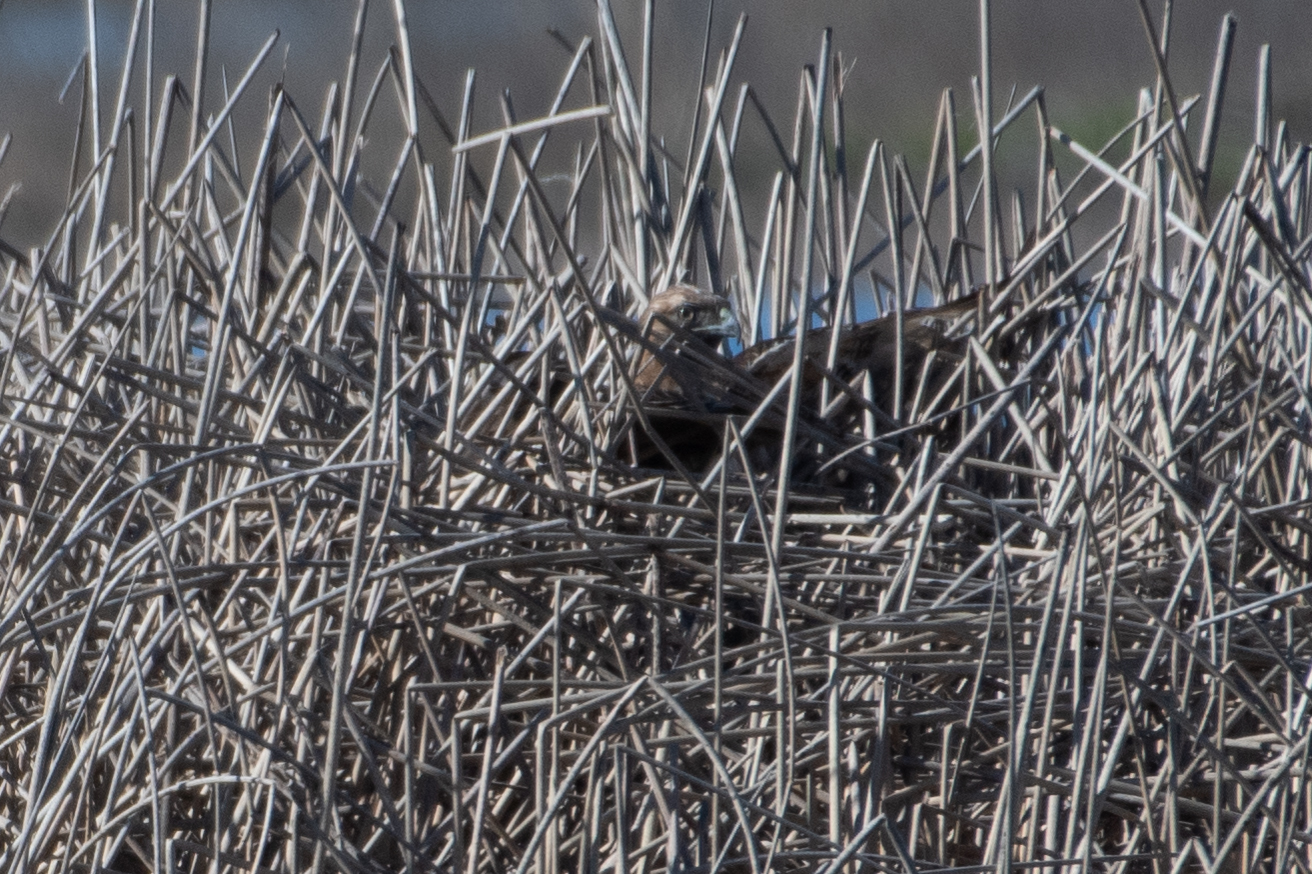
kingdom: Animalia
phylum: Chordata
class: Aves
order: Accipitriformes
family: Accipitridae
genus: Buteo
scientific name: Buteo jamaicensis
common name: Red-tailed hawk
